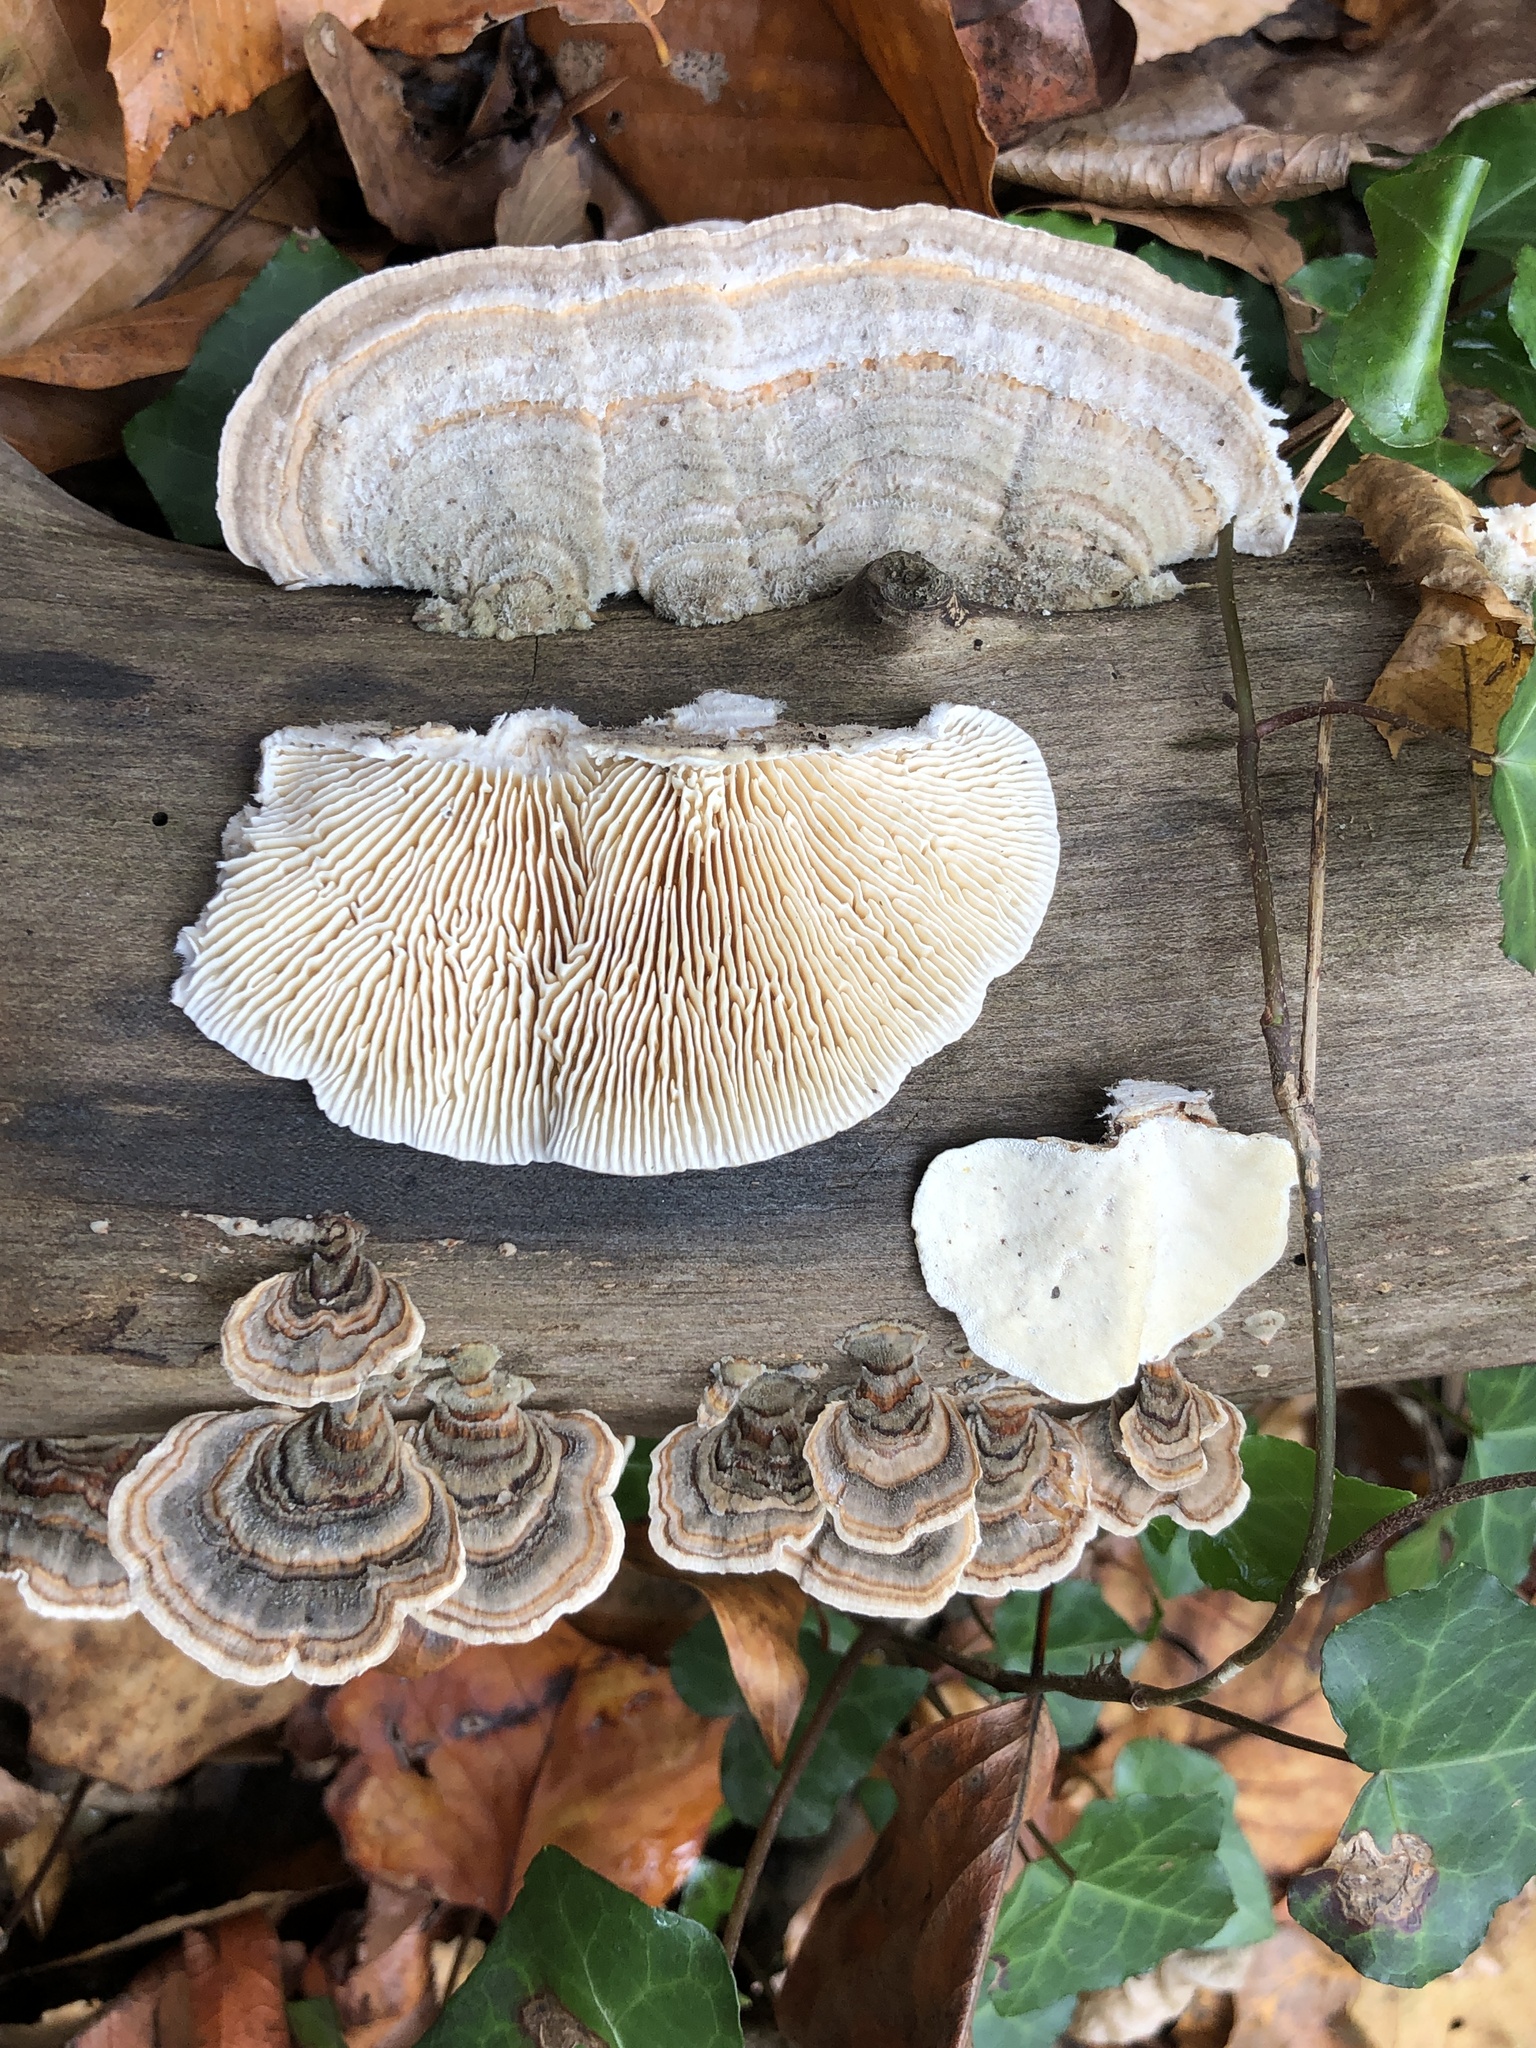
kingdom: Fungi
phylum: Basidiomycota
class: Agaricomycetes
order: Polyporales
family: Polyporaceae
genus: Lenzites
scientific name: Lenzites betulinus
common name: Birch mazegill
